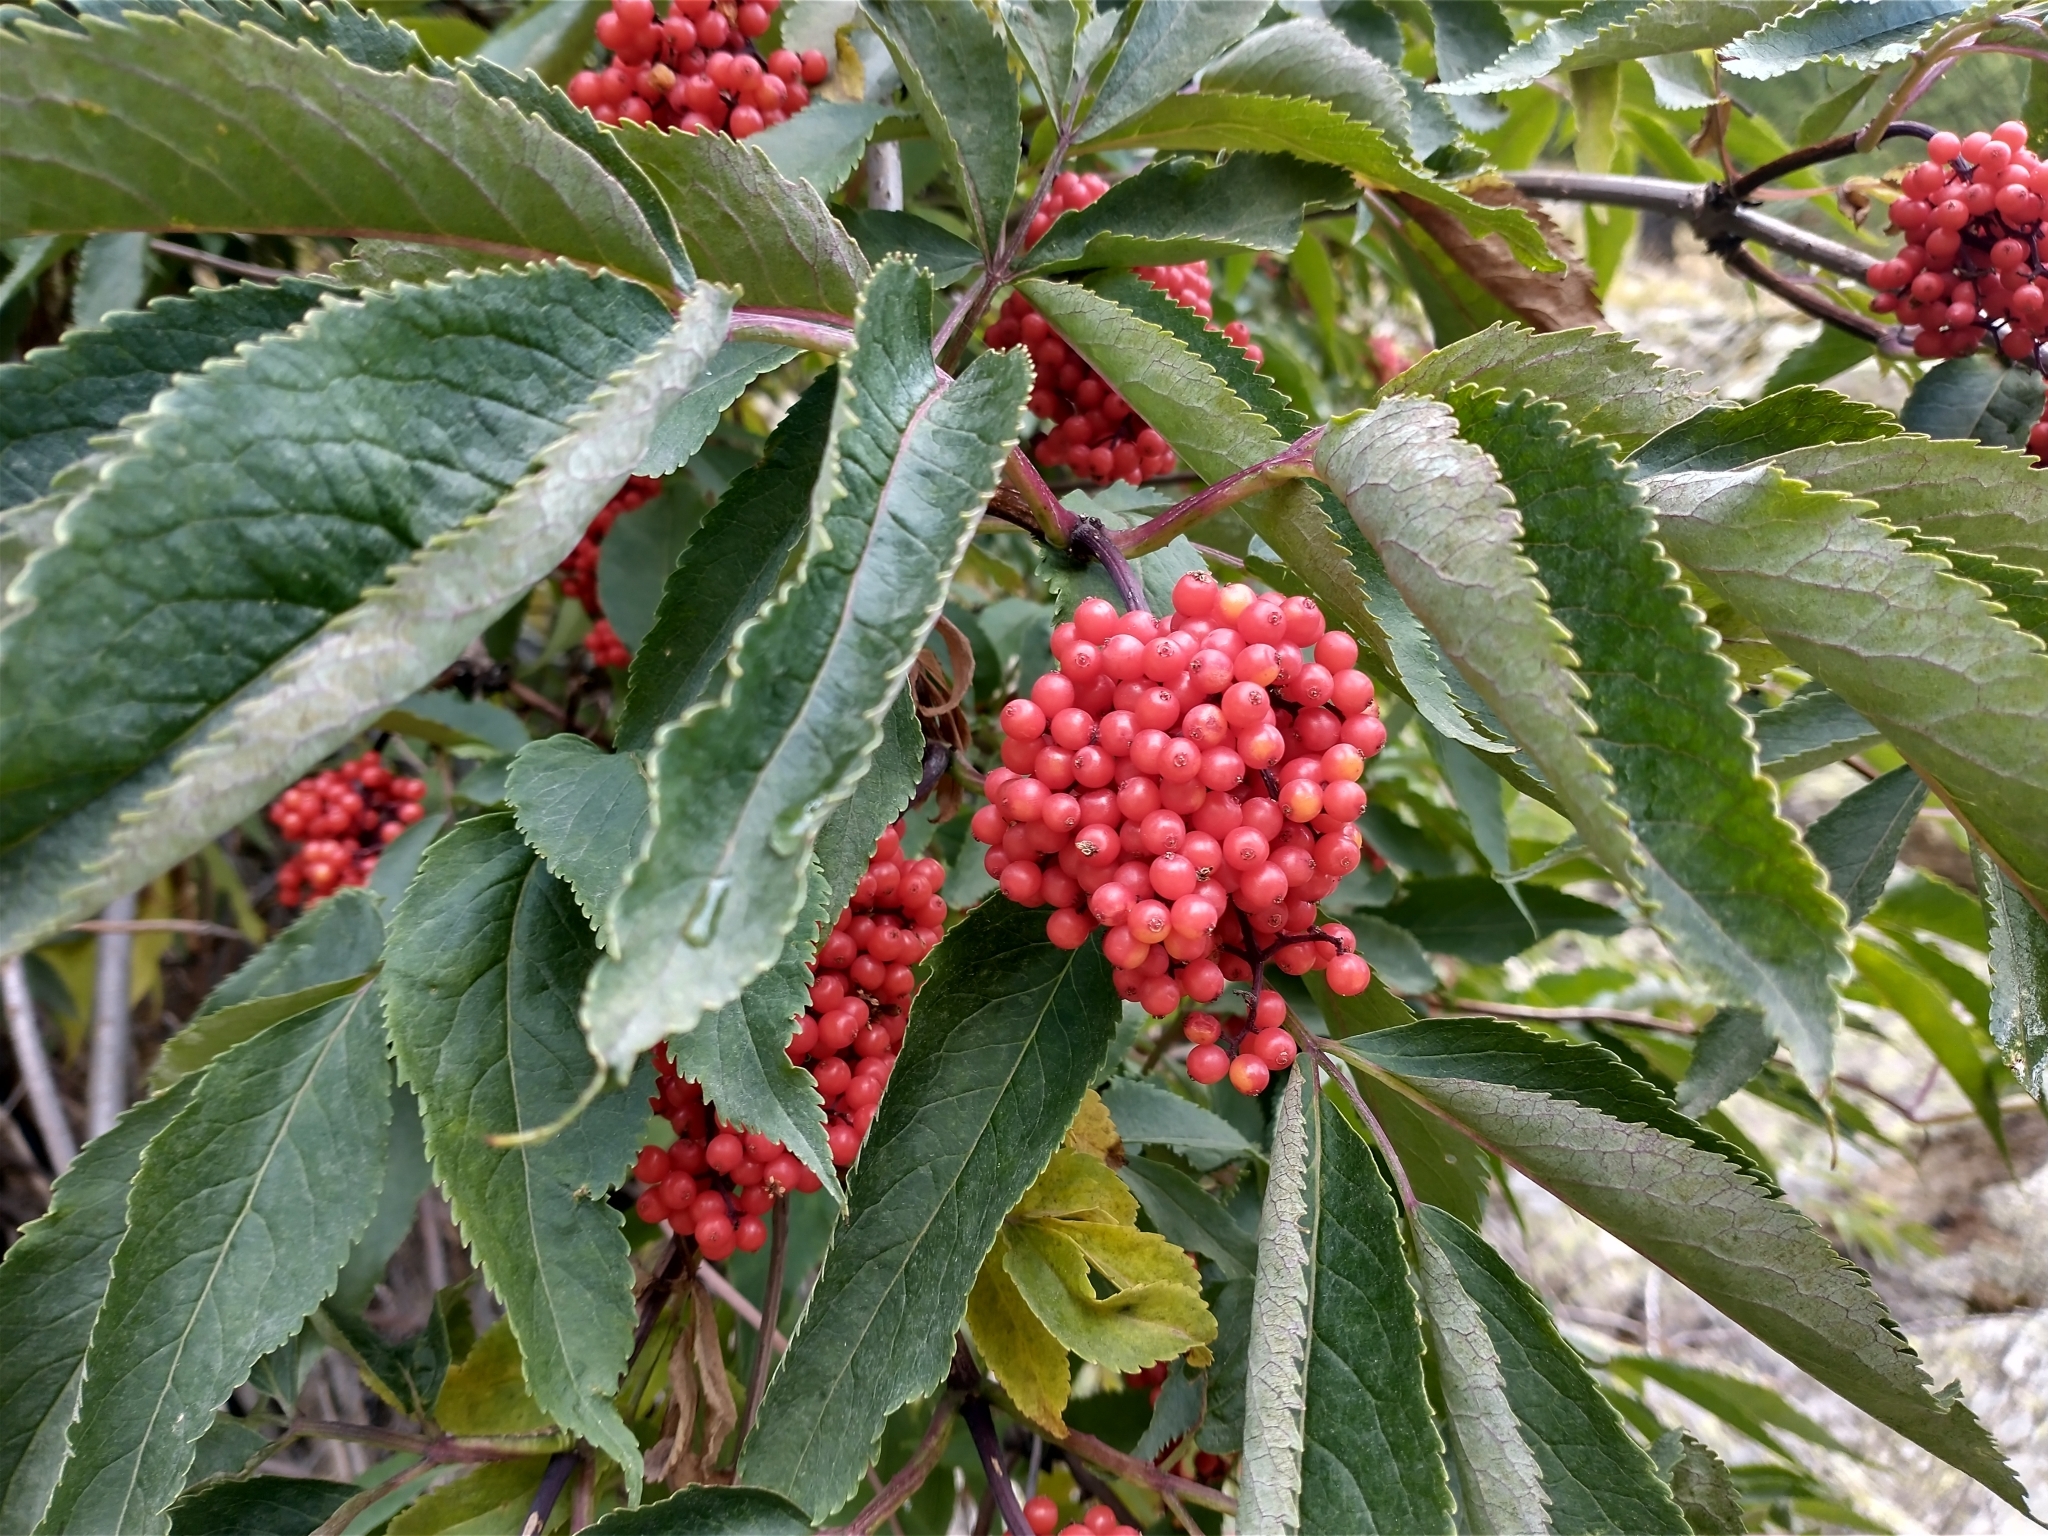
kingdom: Plantae
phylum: Tracheophyta
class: Magnoliopsida
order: Dipsacales
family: Viburnaceae
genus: Sambucus
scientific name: Sambucus racemosa
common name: Red-berried elder
